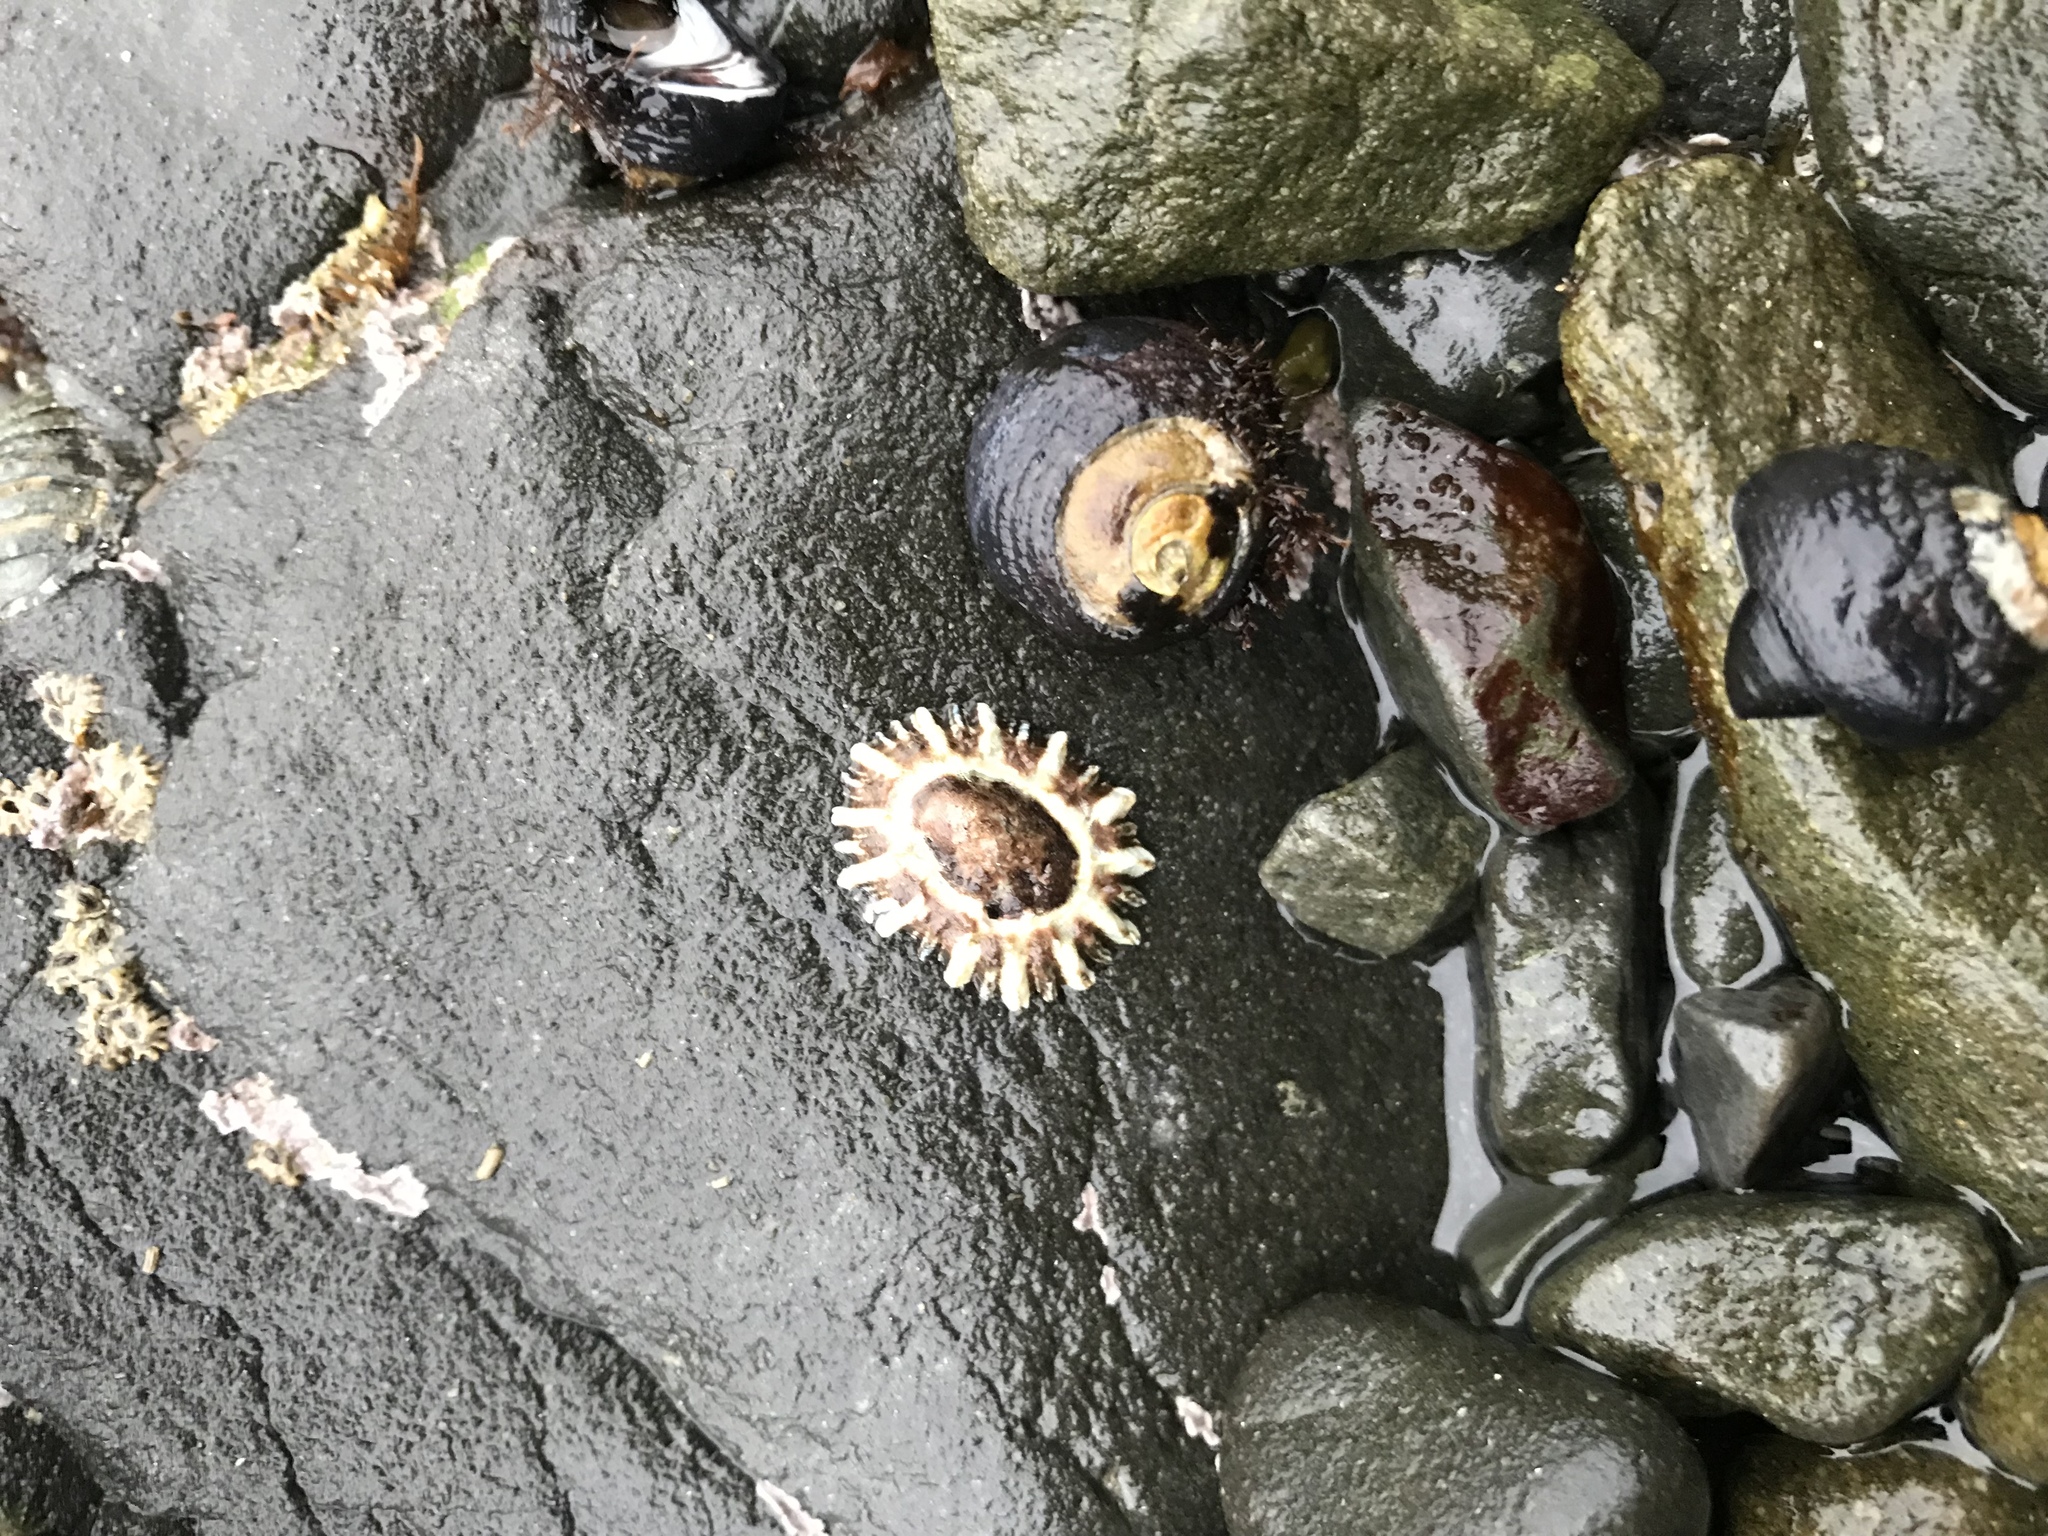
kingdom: Animalia
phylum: Mollusca
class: Gastropoda
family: Lottiidae
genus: Lottia
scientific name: Lottia scabra
